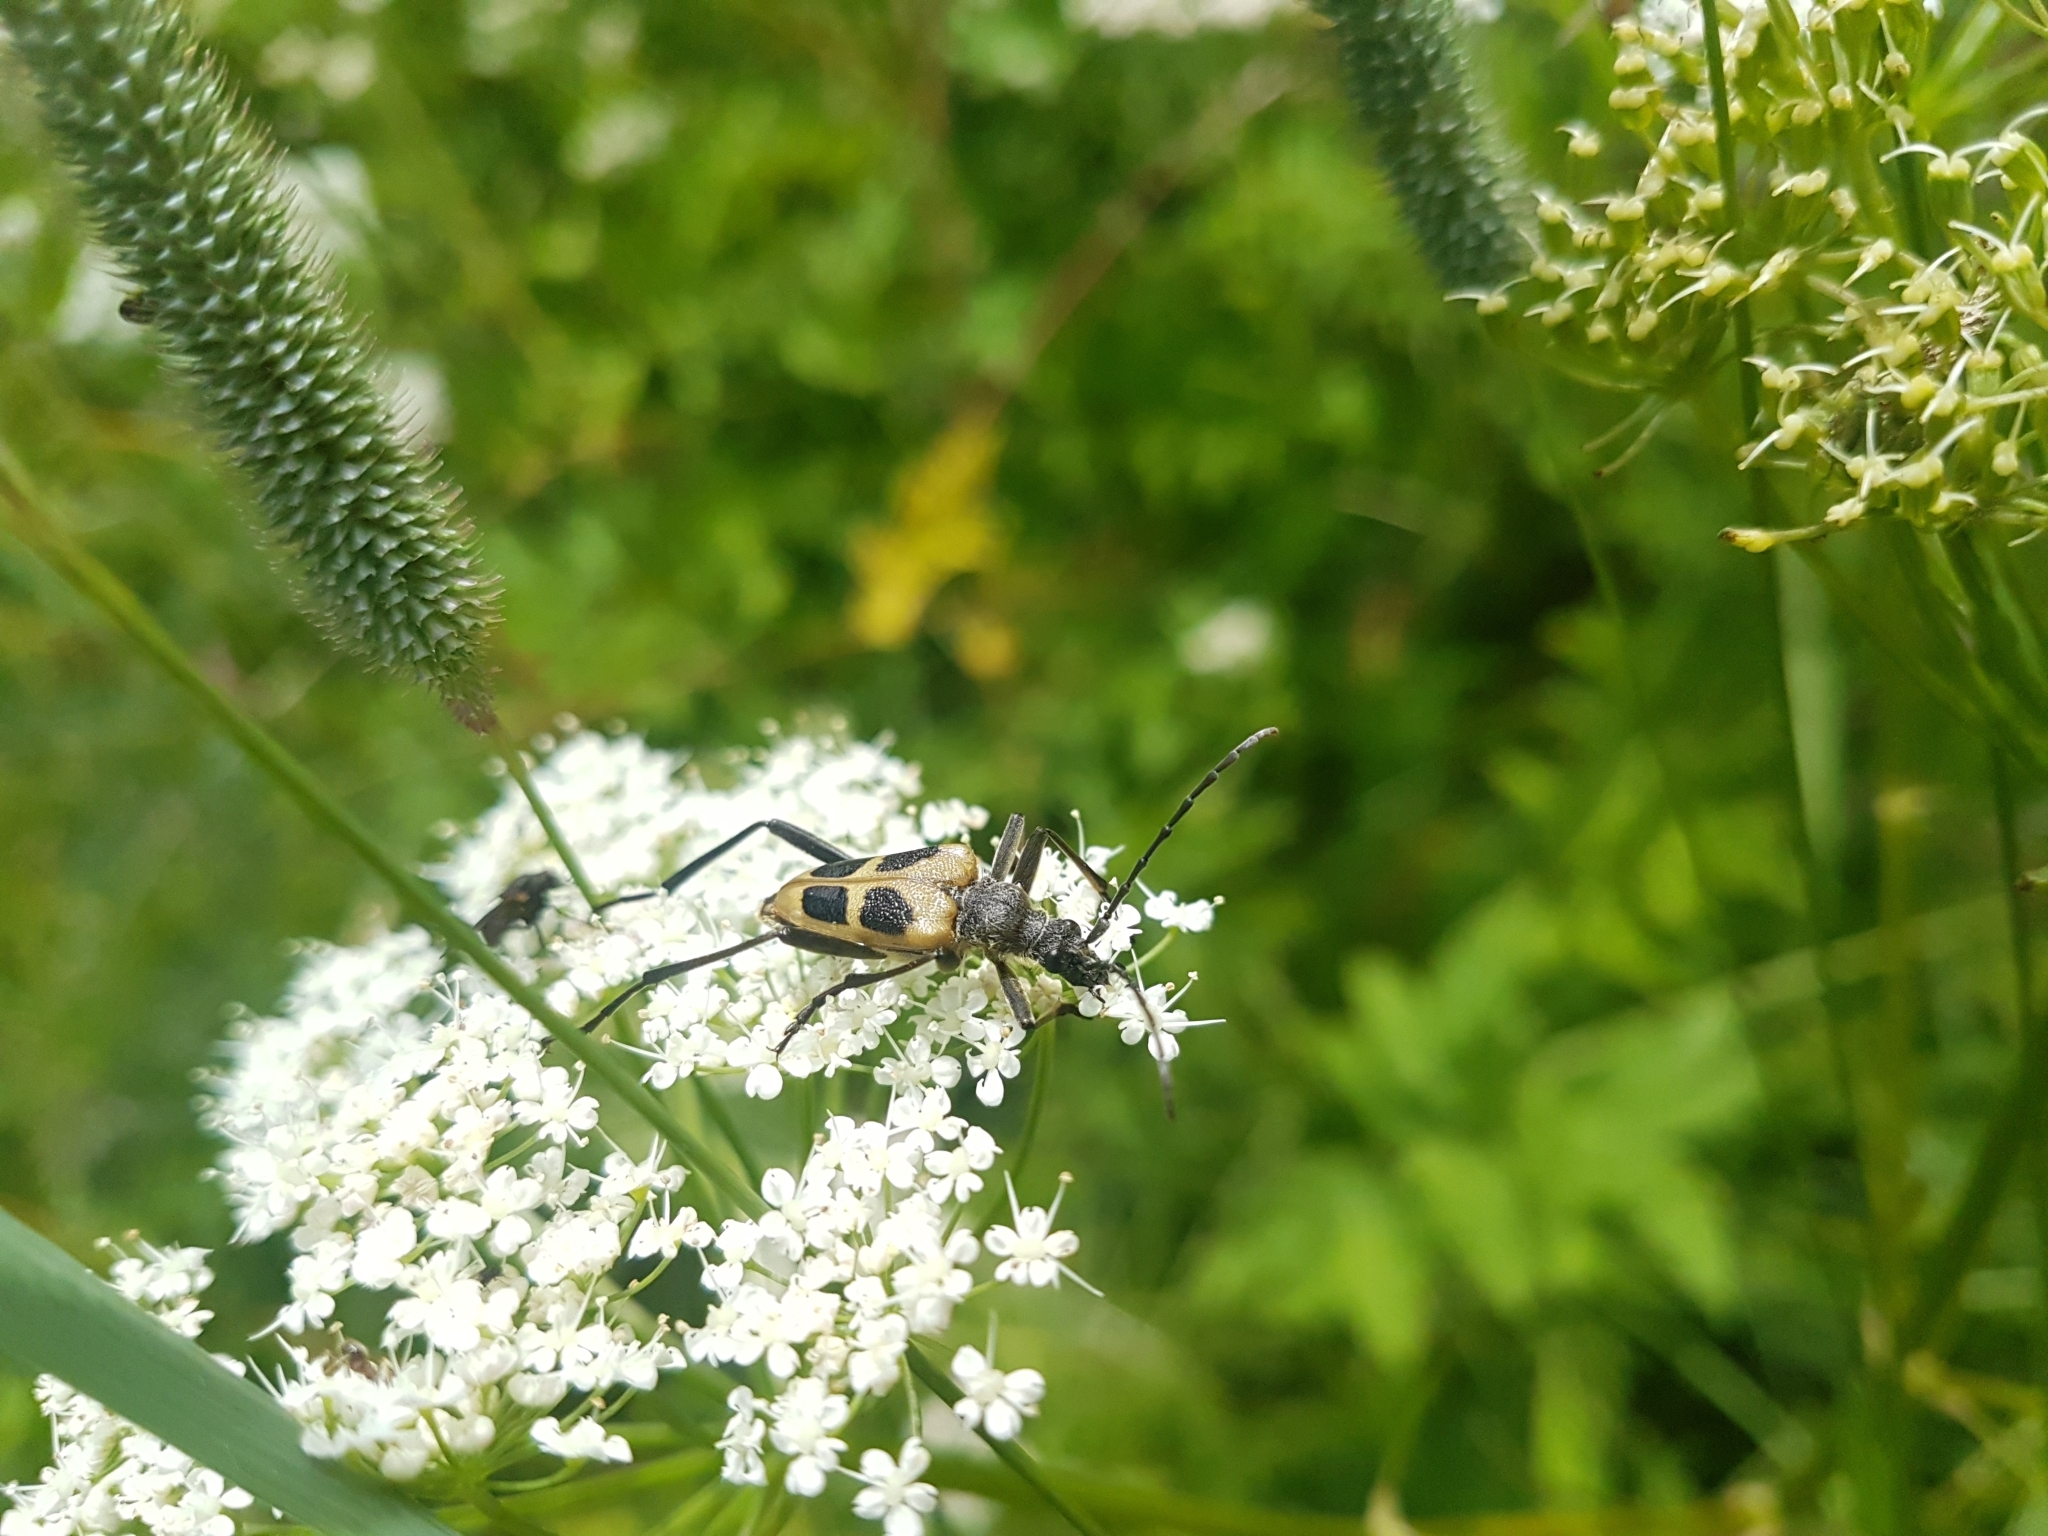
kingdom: Animalia
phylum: Arthropoda
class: Insecta
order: Coleoptera
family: Cerambycidae
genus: Pachyta
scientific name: Pachyta quadrimaculata
